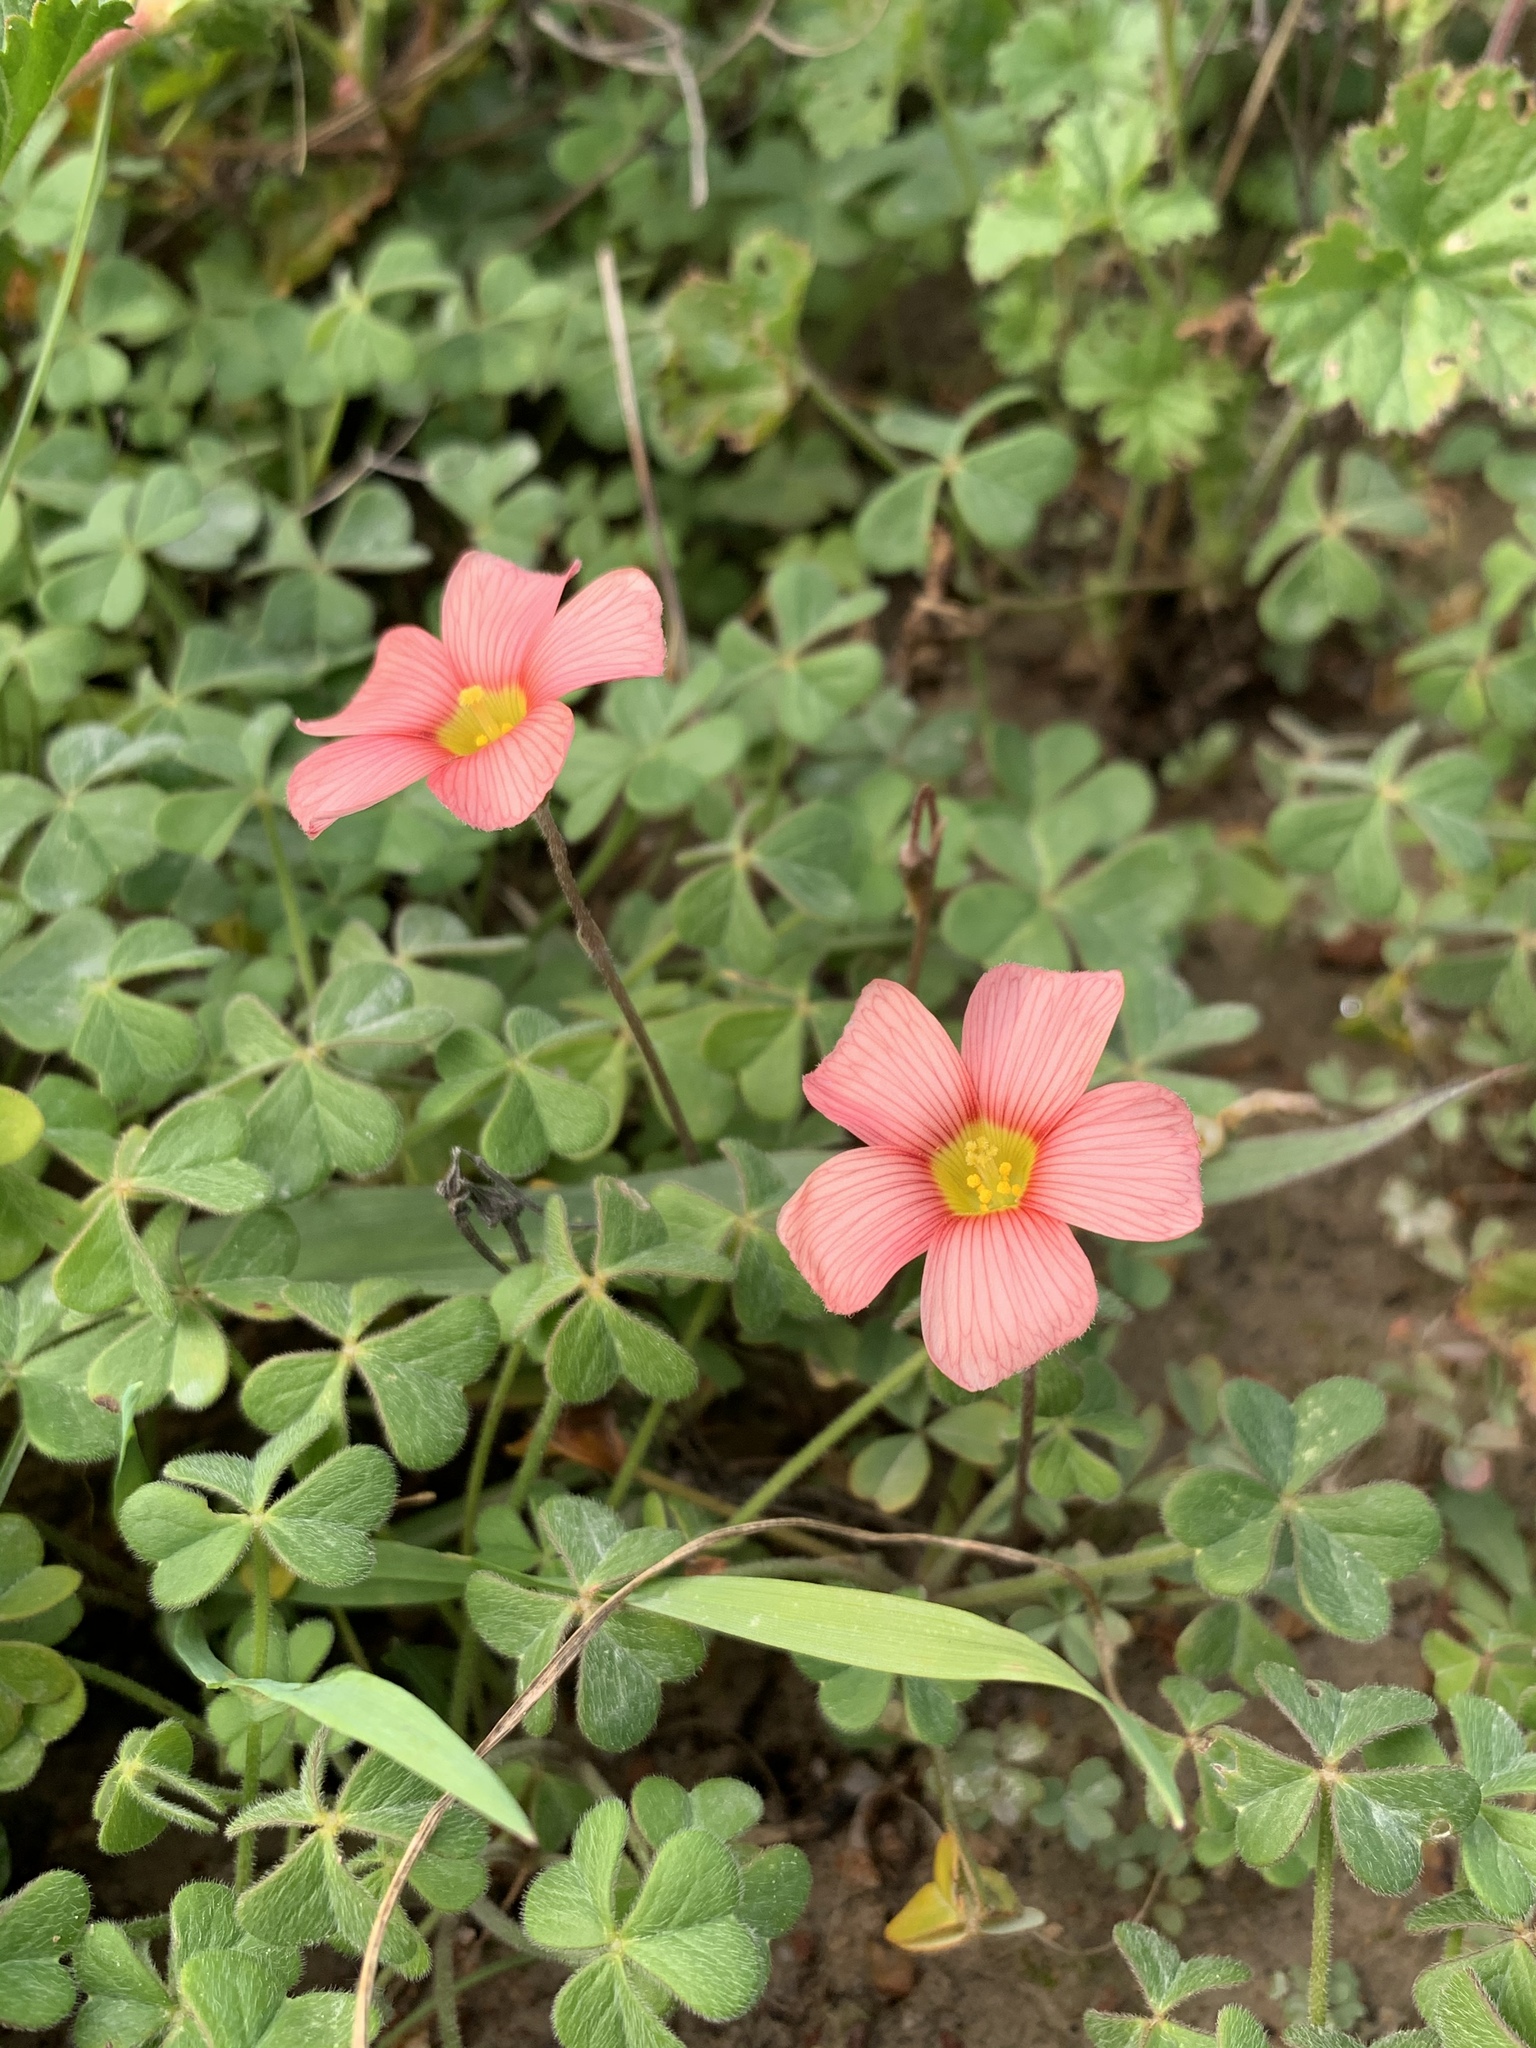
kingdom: Plantae
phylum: Tracheophyta
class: Magnoliopsida
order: Oxalidales
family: Oxalidaceae
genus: Oxalis
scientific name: Oxalis obtusa
